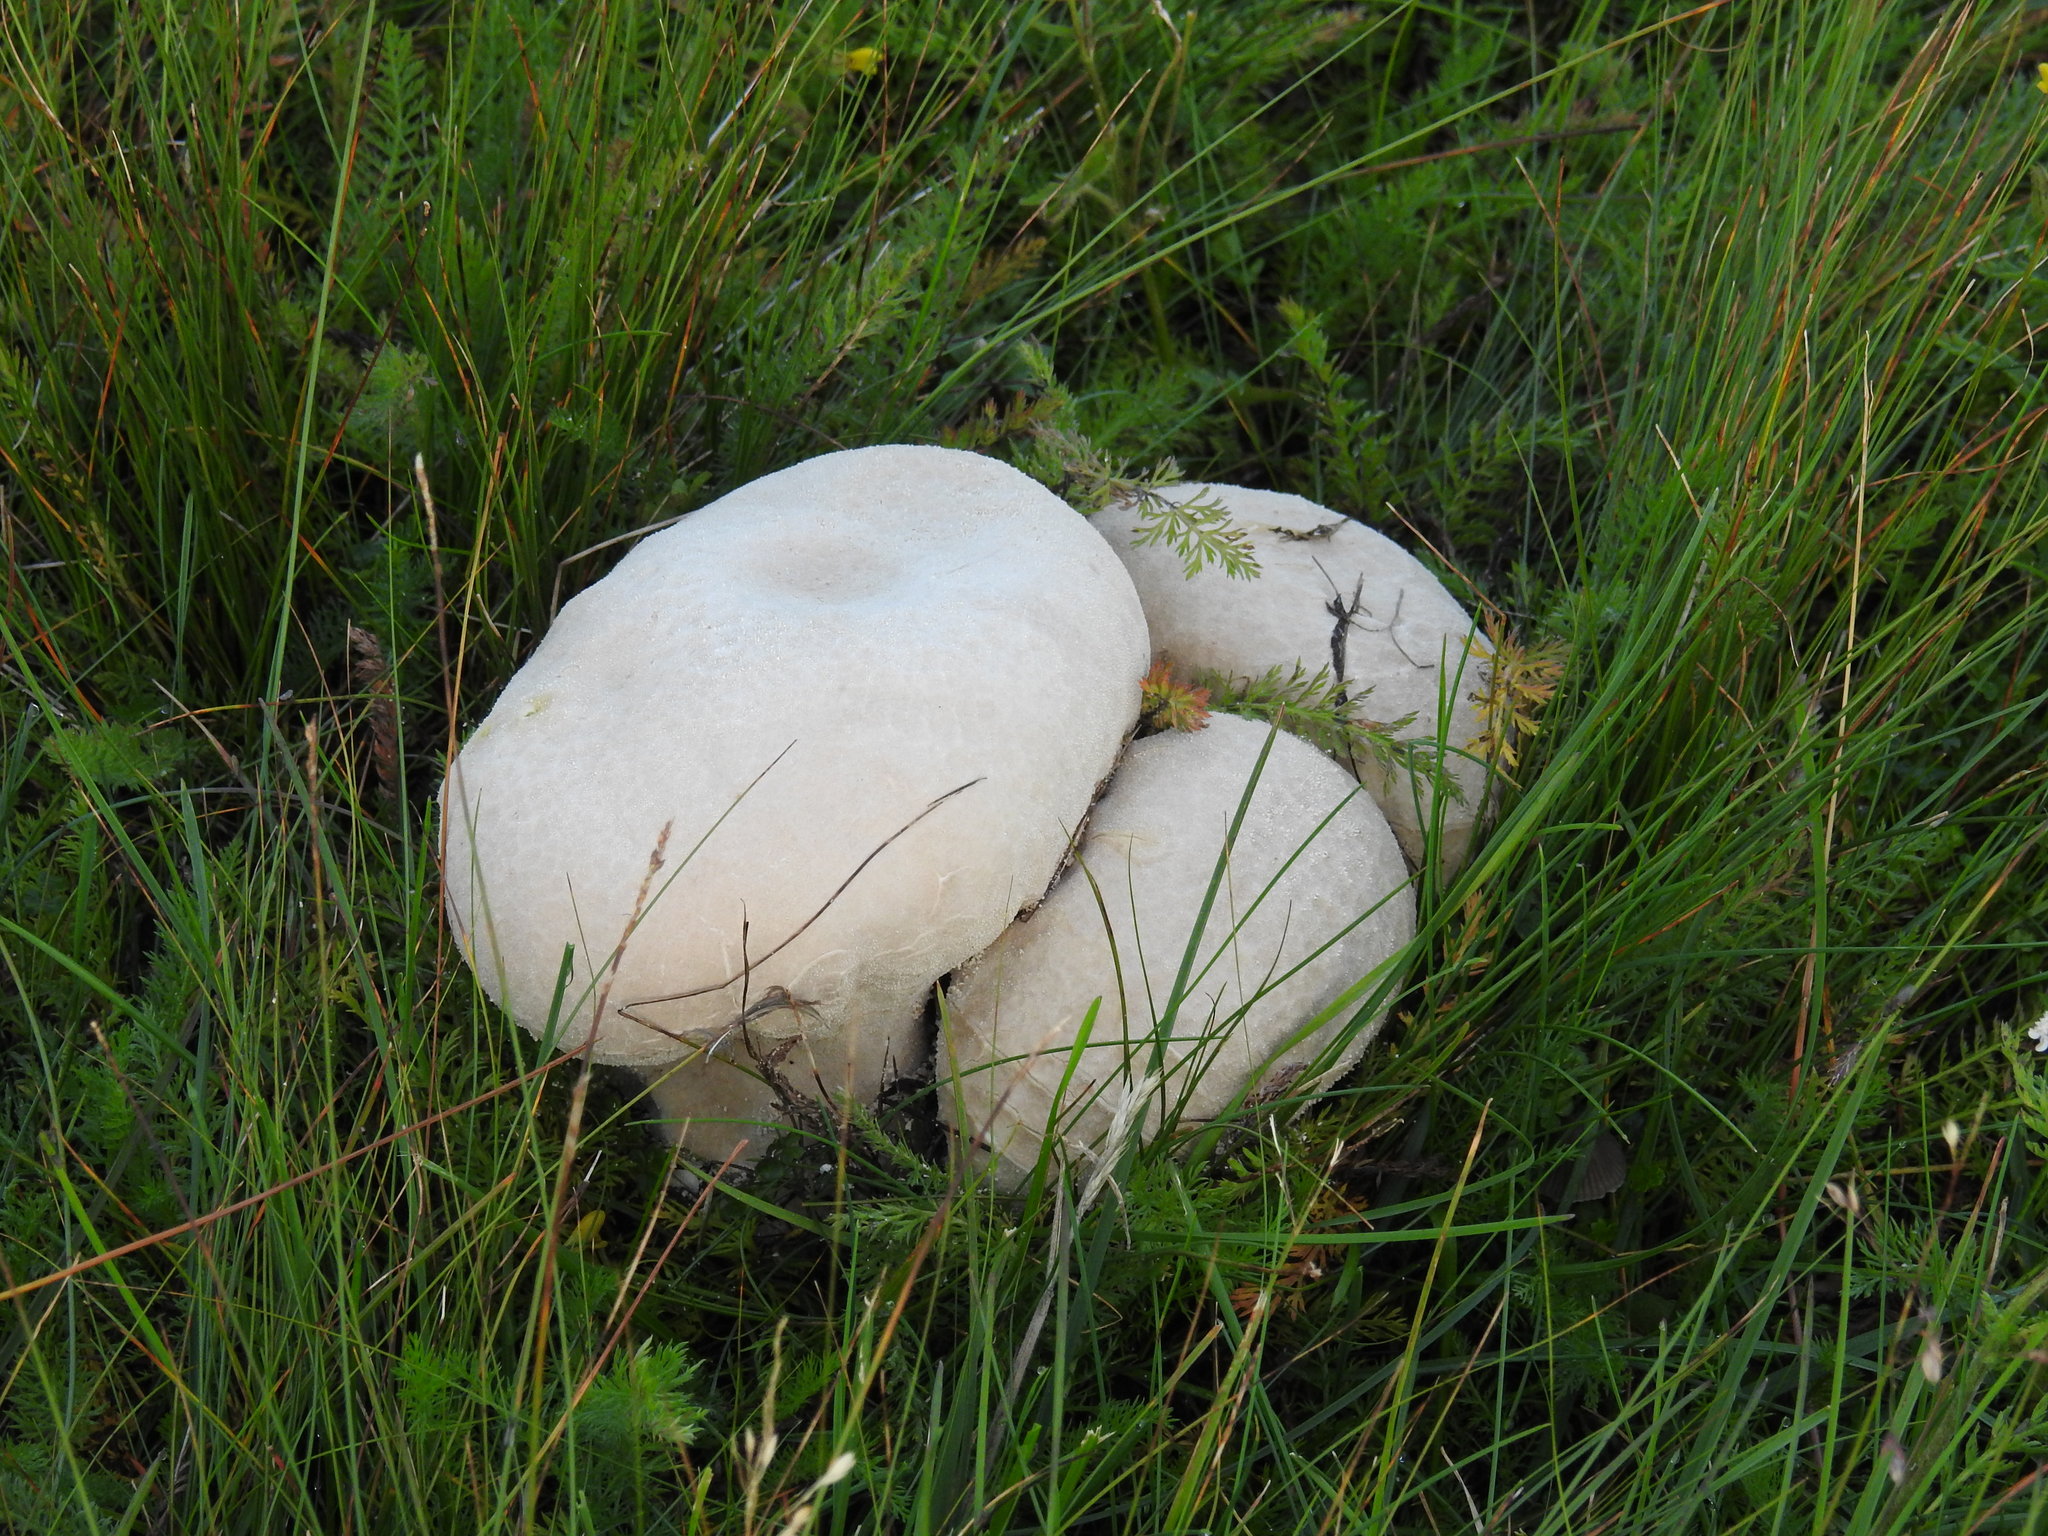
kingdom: Fungi
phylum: Basidiomycota
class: Agaricomycetes
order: Agaricales
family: Lycoperdaceae
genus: Calvatia
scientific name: Calvatia gigantea
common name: Giant puffball
